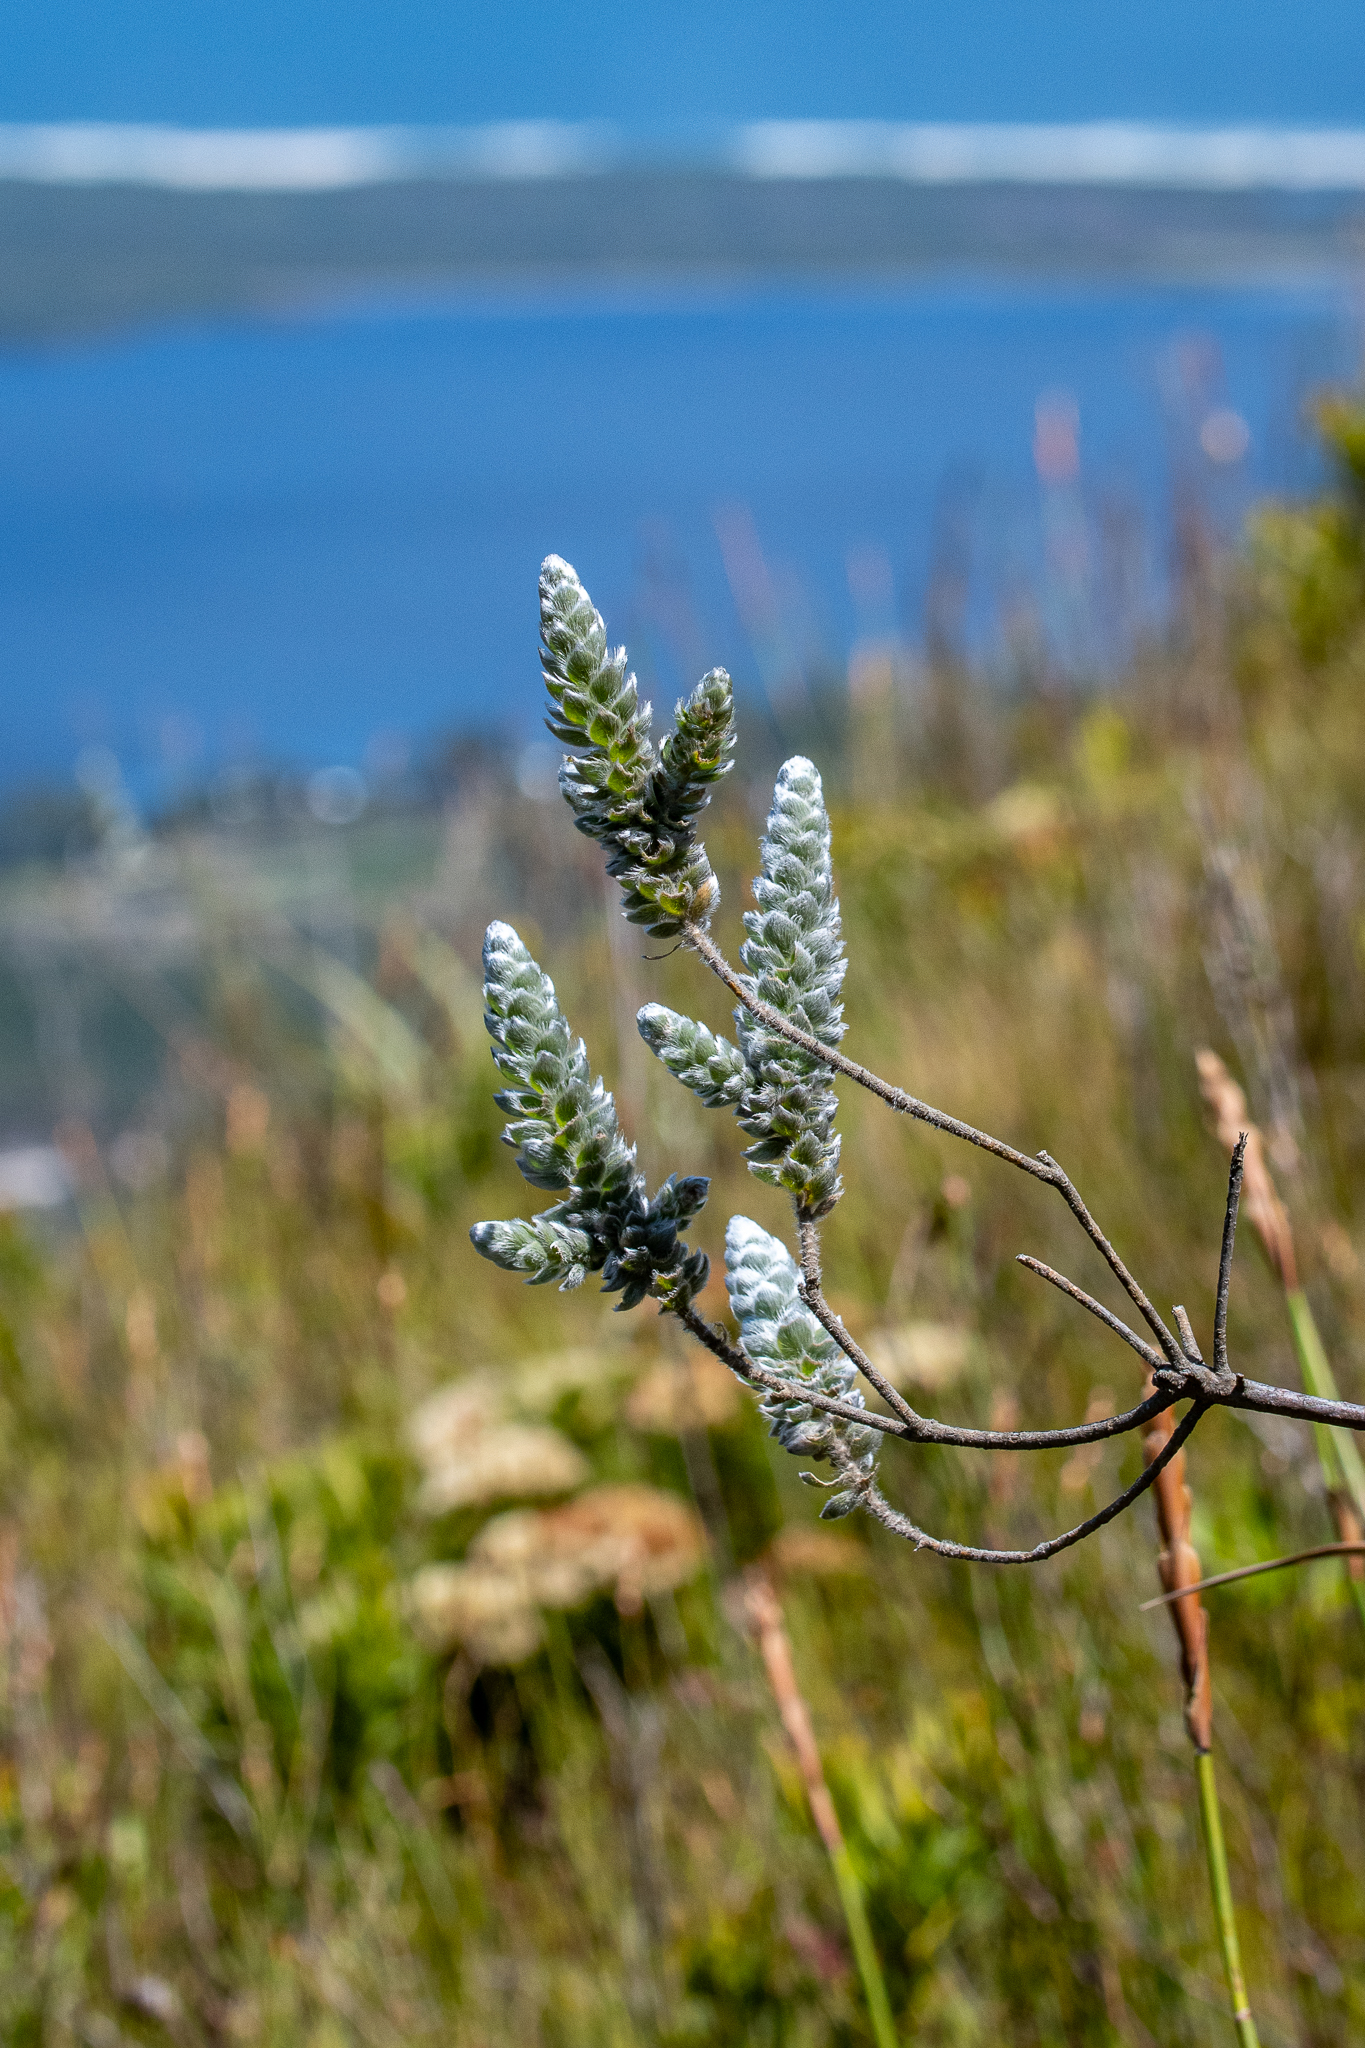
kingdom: Plantae
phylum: Tracheophyta
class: Magnoliopsida
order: Fabales
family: Fabaceae
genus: Liparia
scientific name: Liparia vestita
